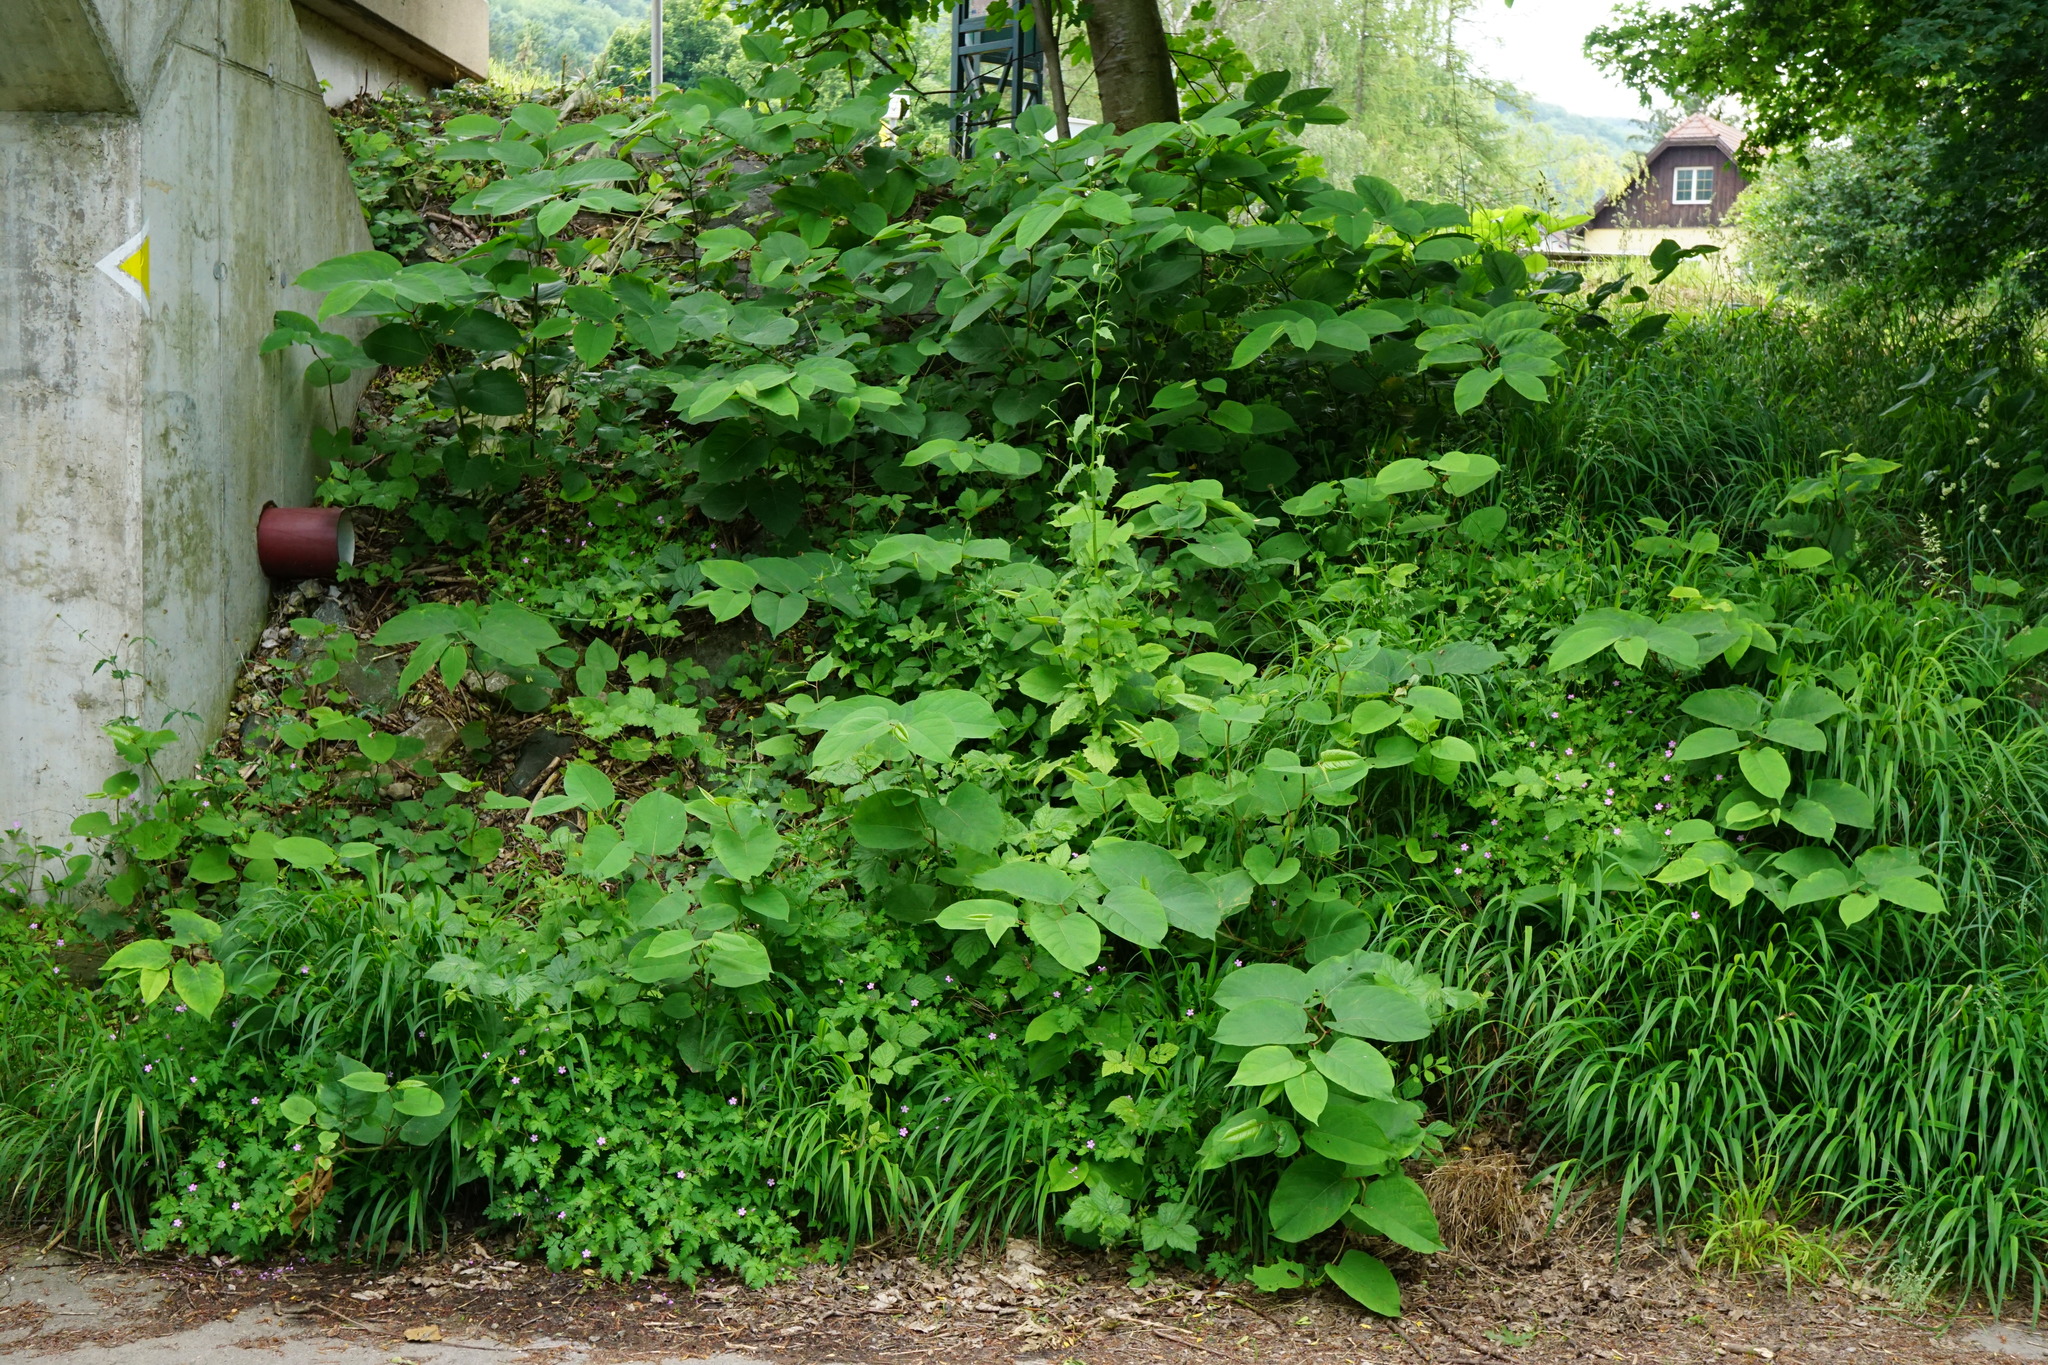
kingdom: Plantae
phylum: Tracheophyta
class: Magnoliopsida
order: Caryophyllales
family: Polygonaceae
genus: Reynoutria
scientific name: Reynoutria bohemica
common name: Bohemian knotweed
